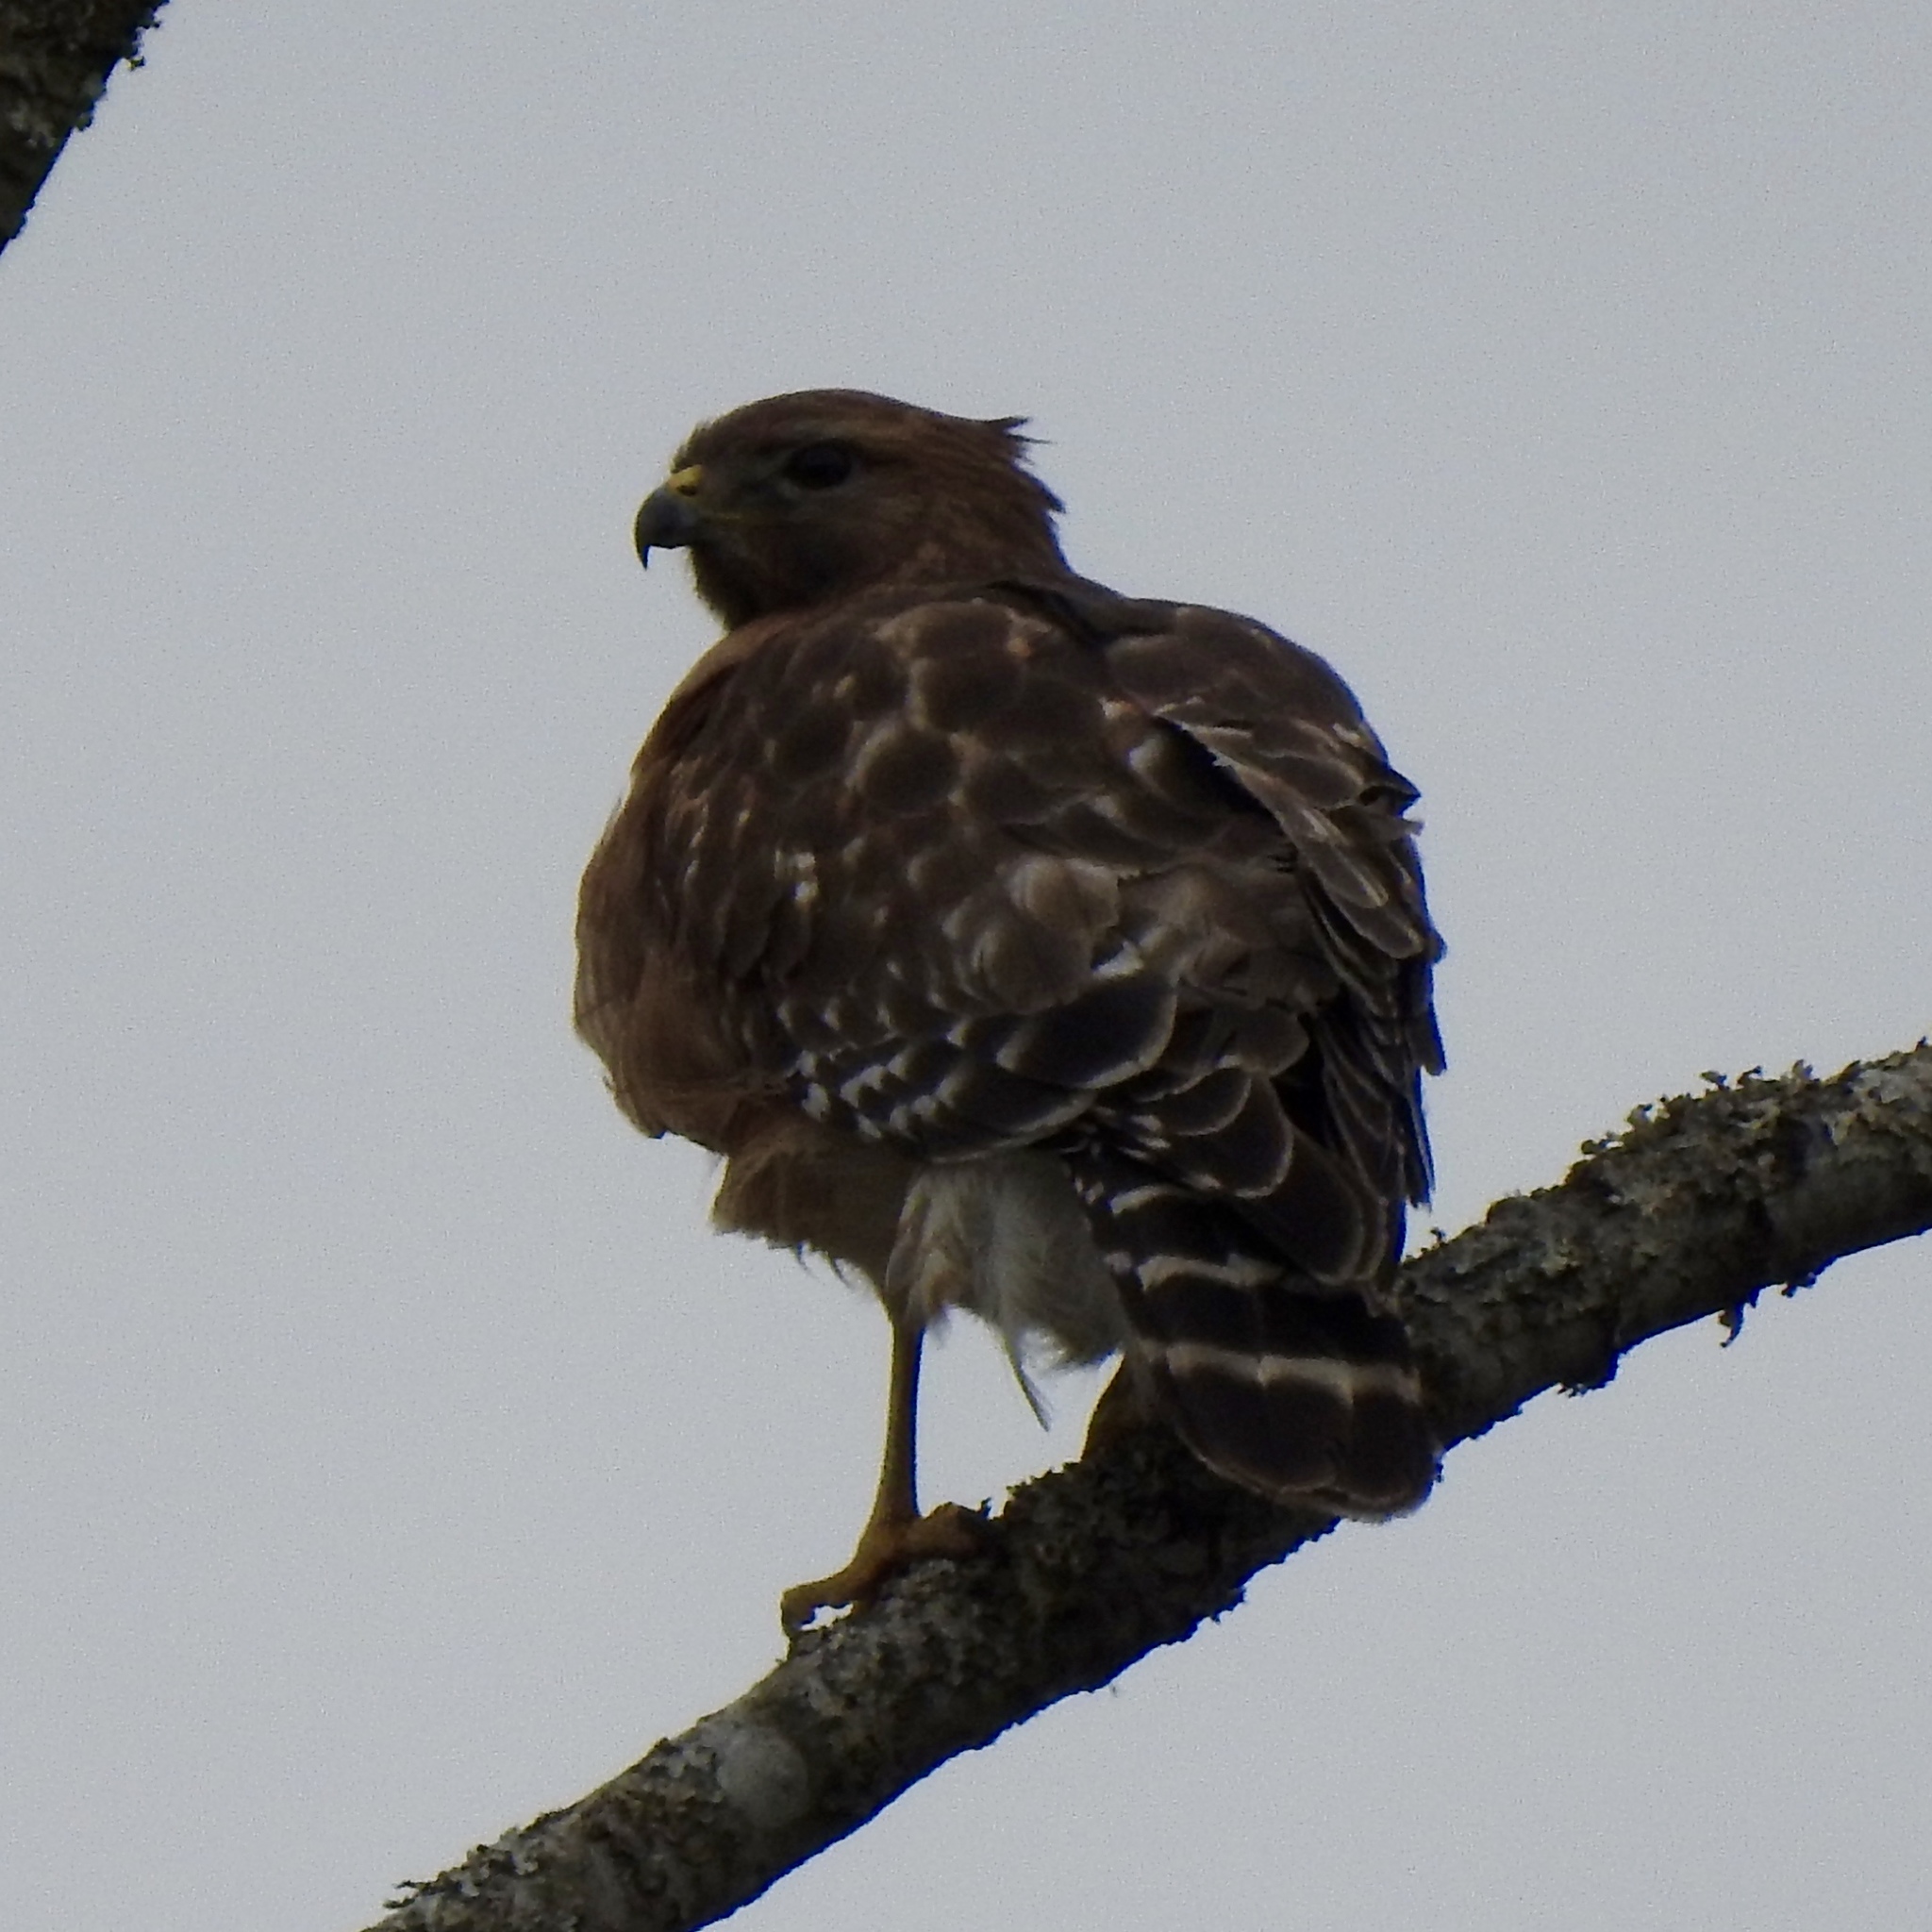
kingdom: Animalia
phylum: Chordata
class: Aves
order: Accipitriformes
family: Accipitridae
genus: Buteo
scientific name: Buteo lineatus
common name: Red-shouldered hawk
